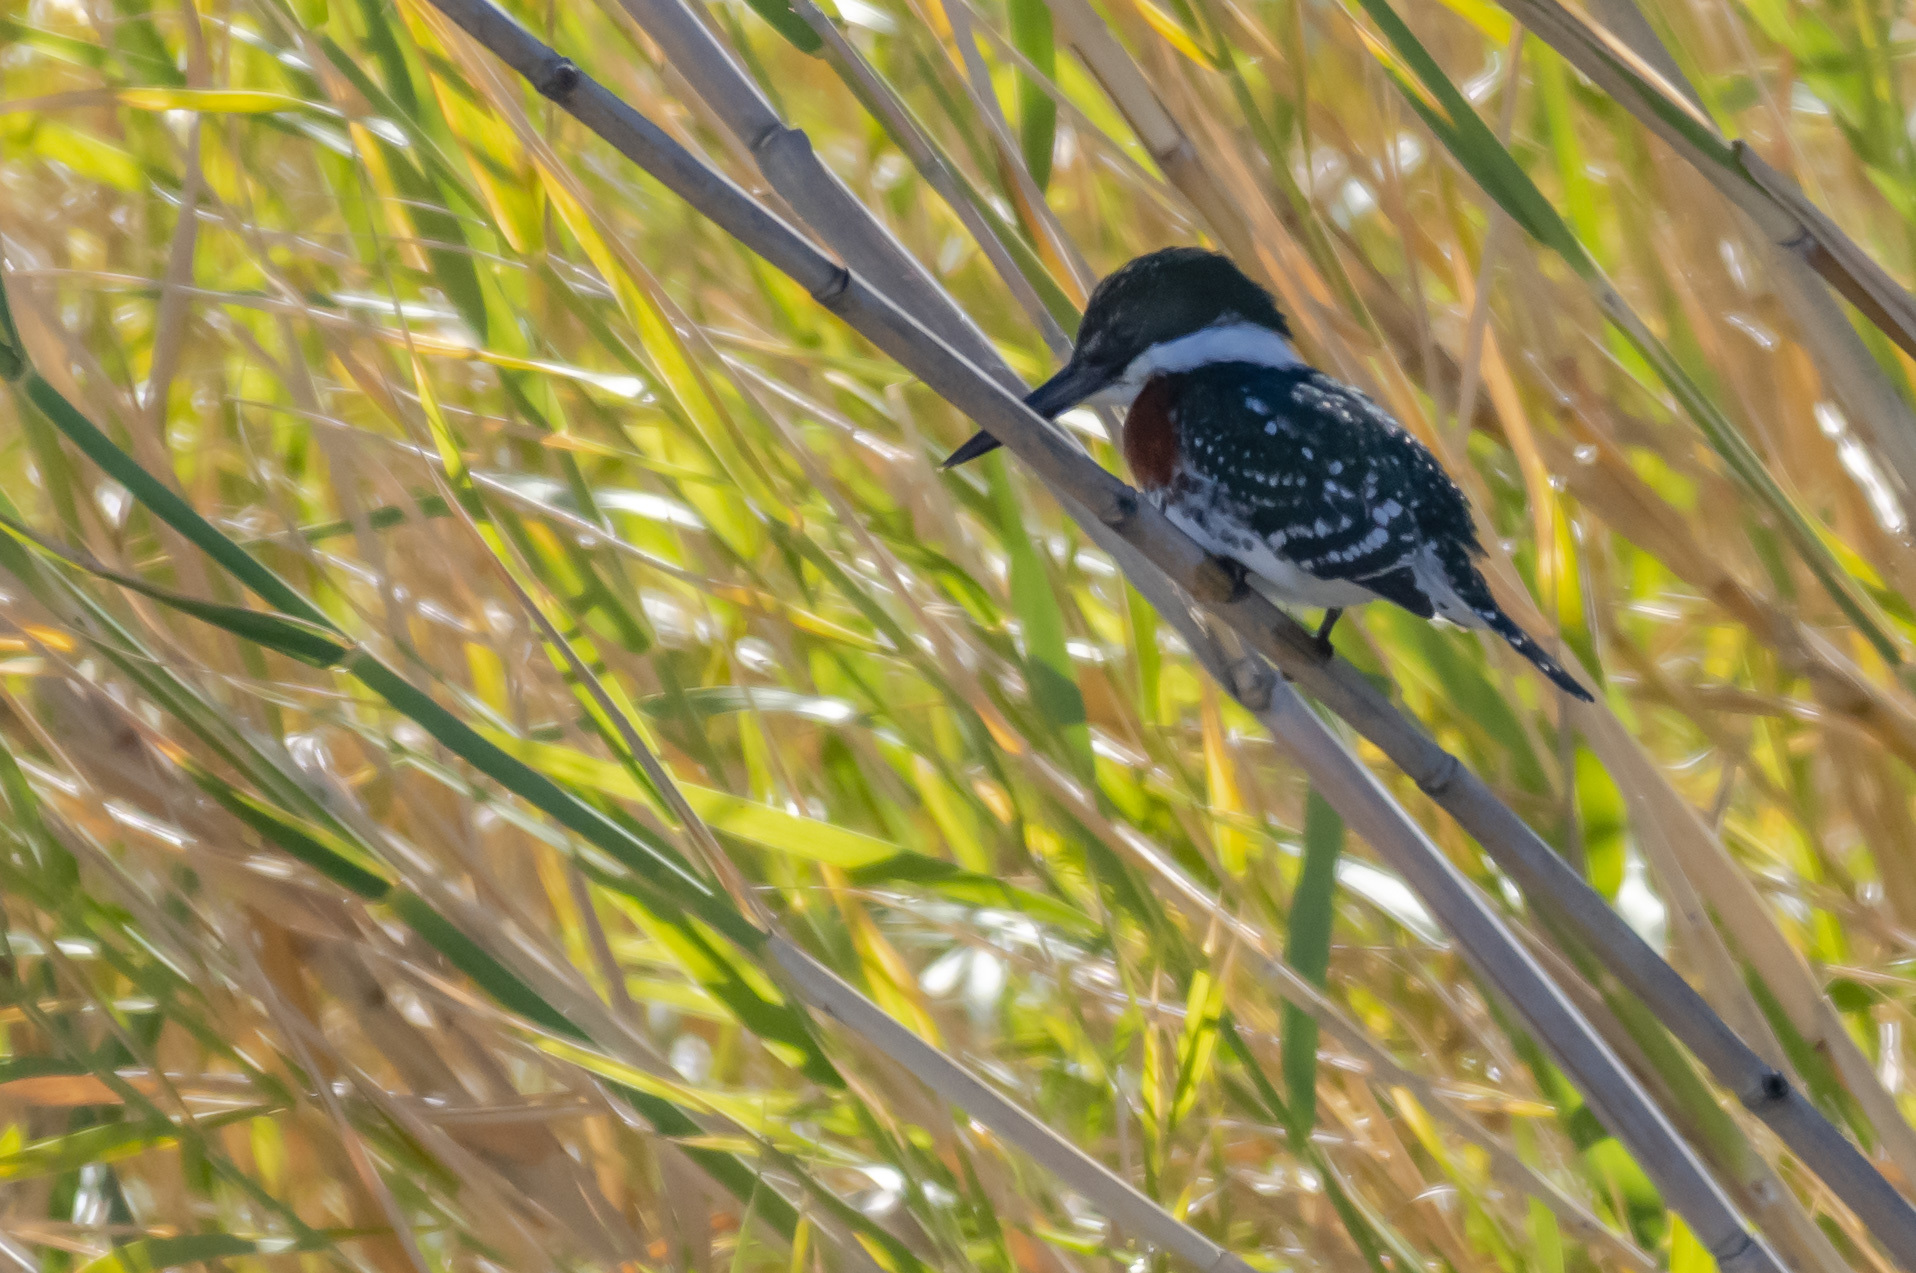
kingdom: Animalia
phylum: Chordata
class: Aves
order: Coraciiformes
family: Alcedinidae
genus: Chloroceryle
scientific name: Chloroceryle americana
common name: Green kingfisher
